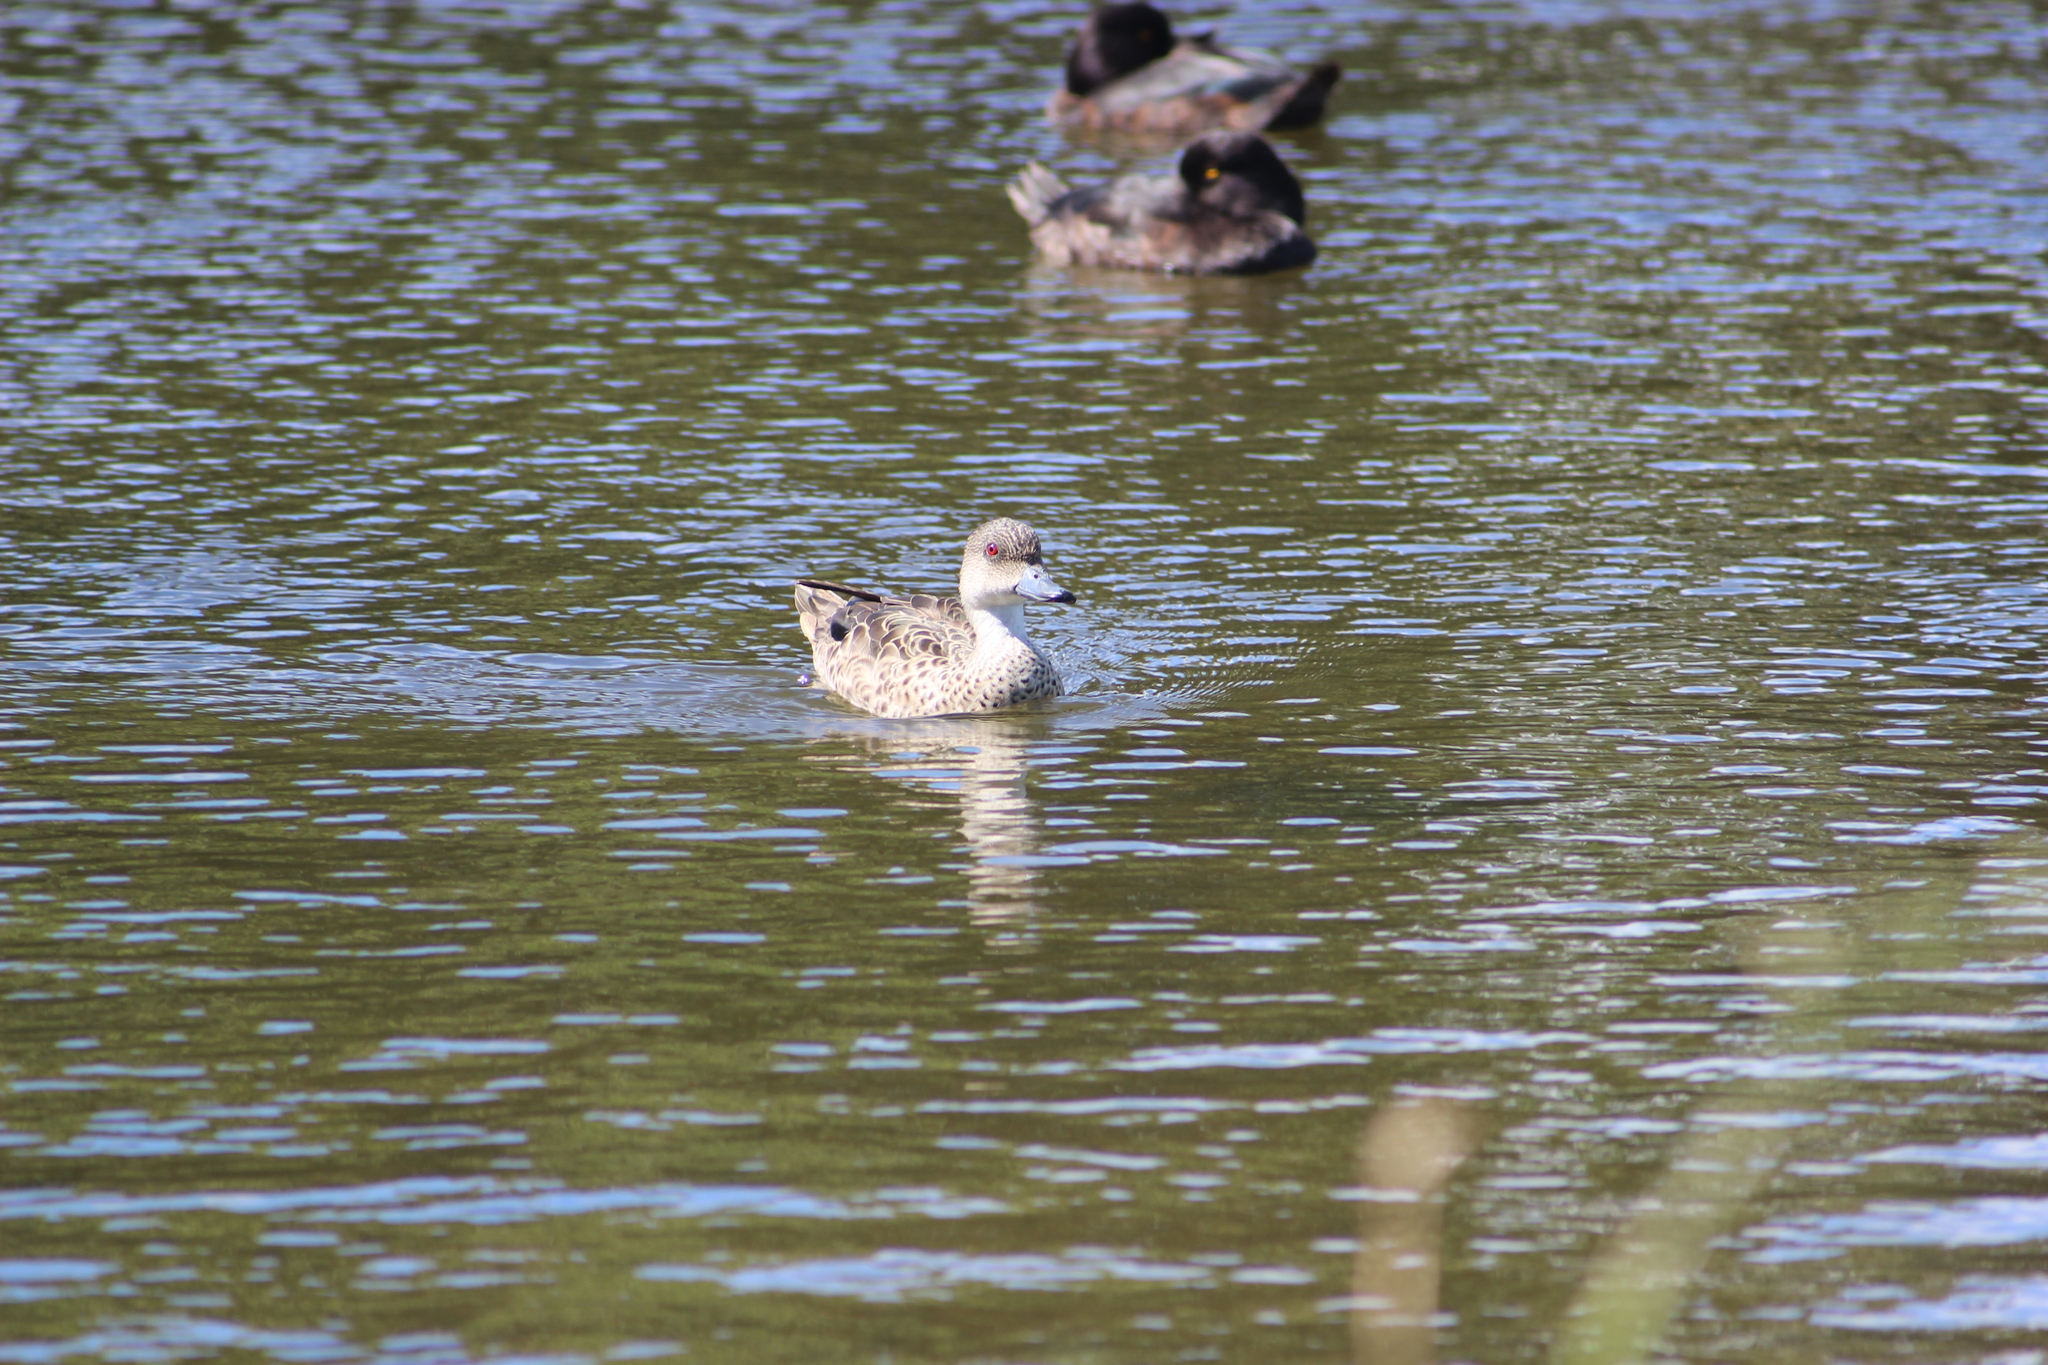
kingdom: Animalia
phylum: Chordata
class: Aves
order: Anseriformes
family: Anatidae
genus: Anas
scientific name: Anas gracilis
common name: Grey teal
